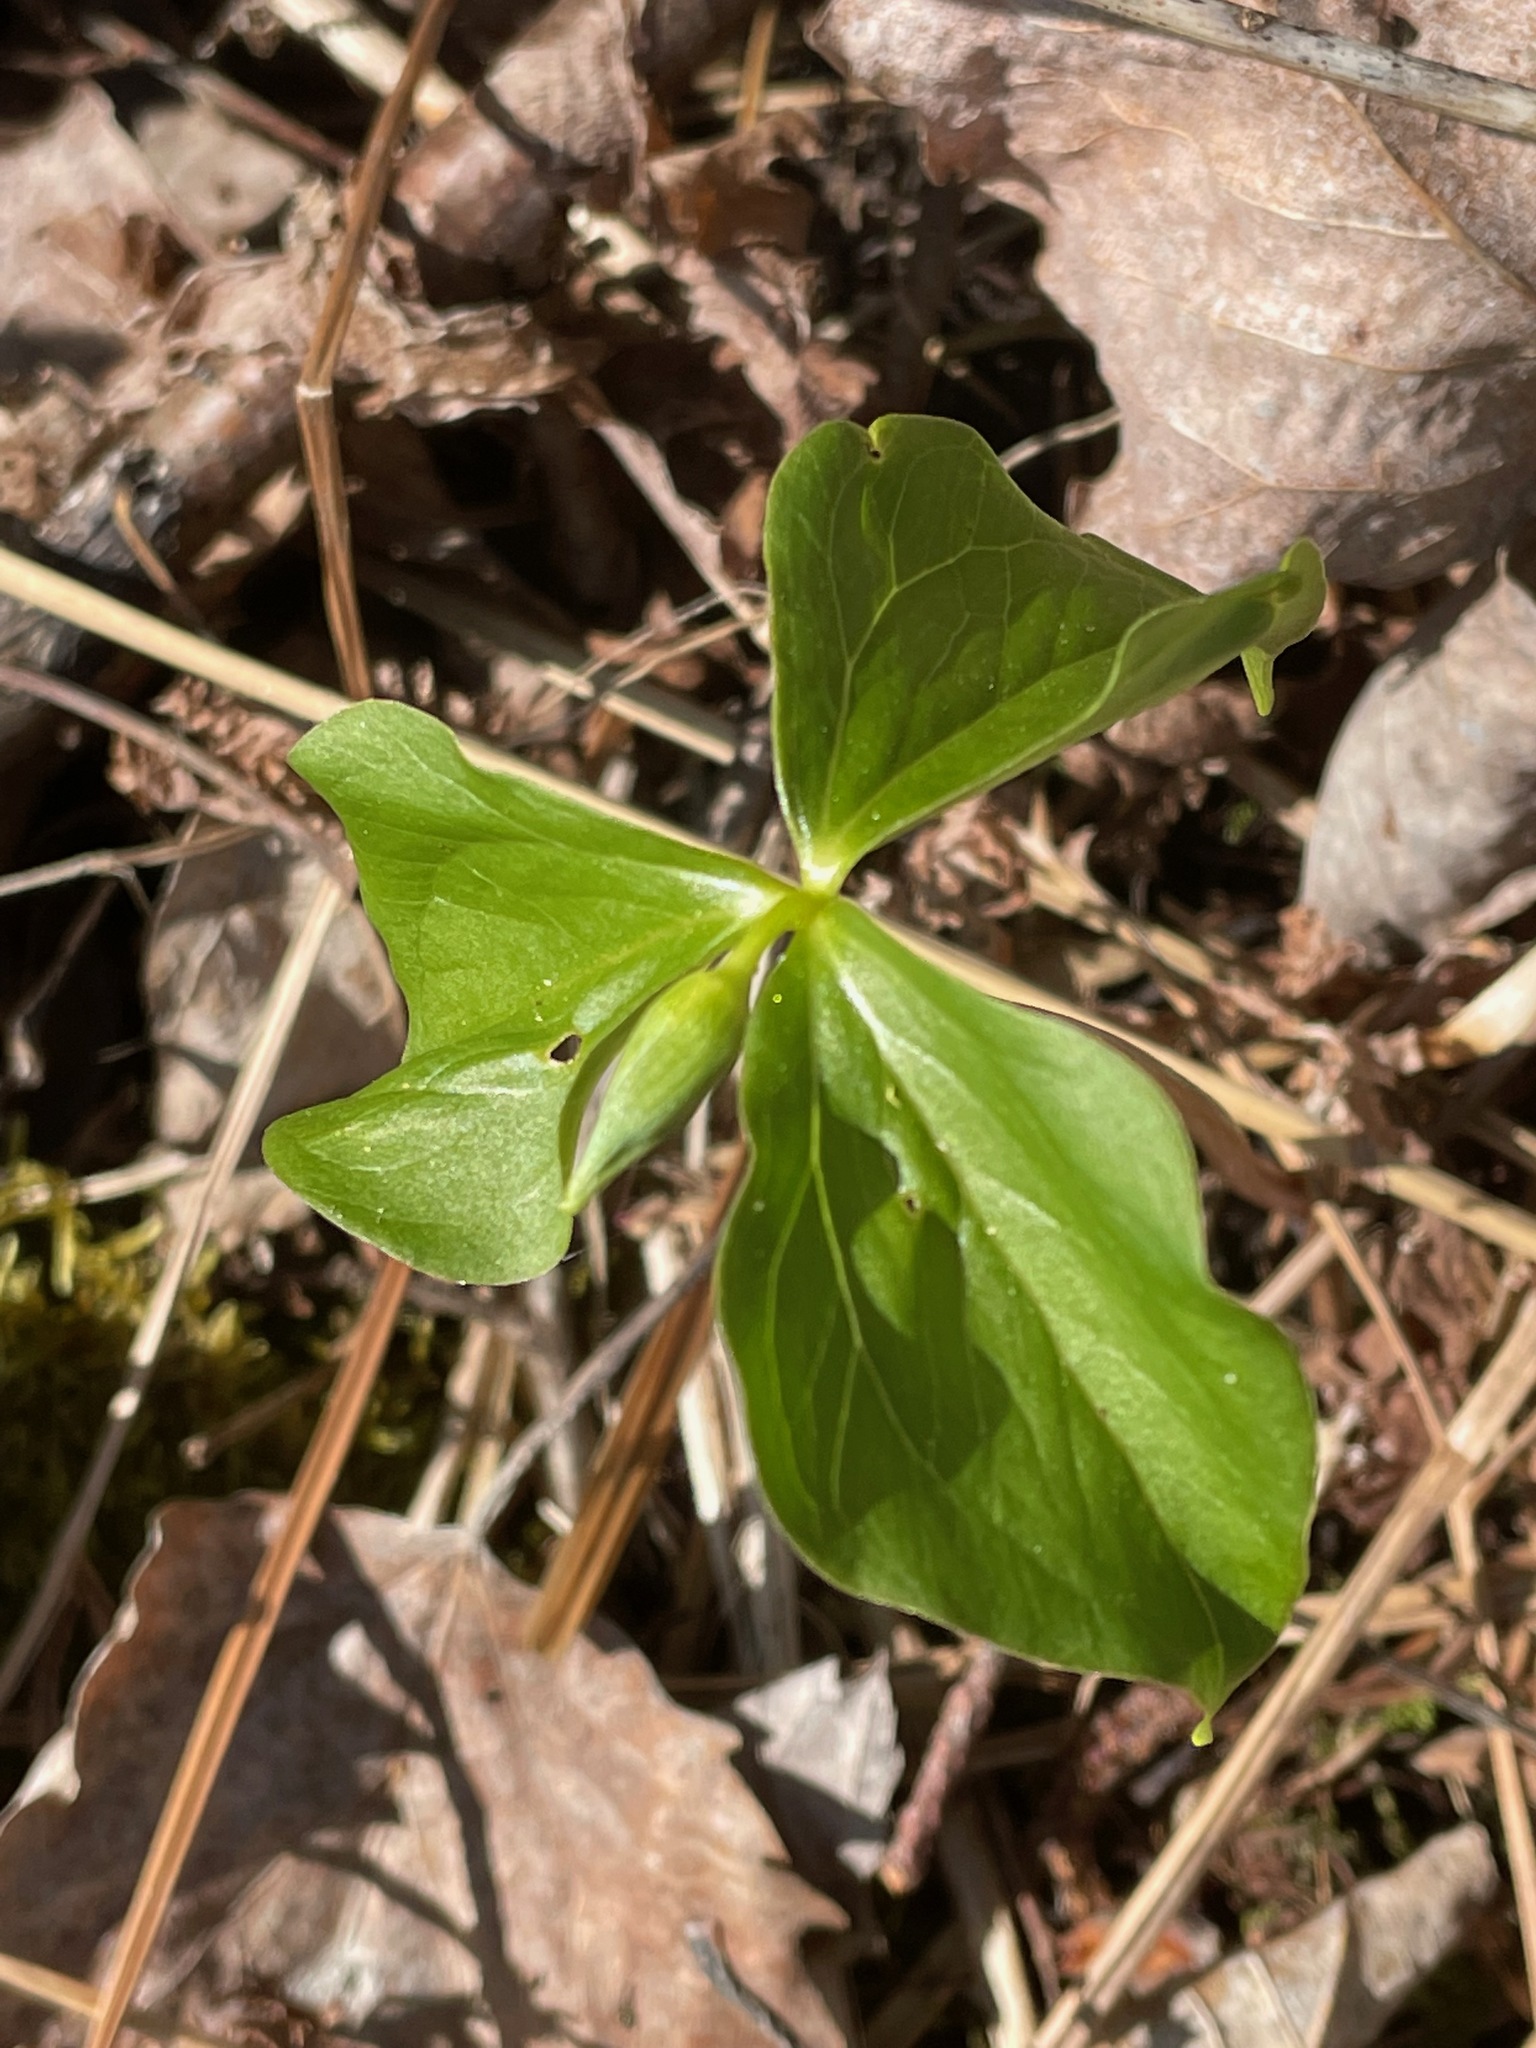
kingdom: Plantae
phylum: Tracheophyta
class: Liliopsida
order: Liliales
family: Melanthiaceae
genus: Trillium
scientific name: Trillium cernuum
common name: Nodding trillium
